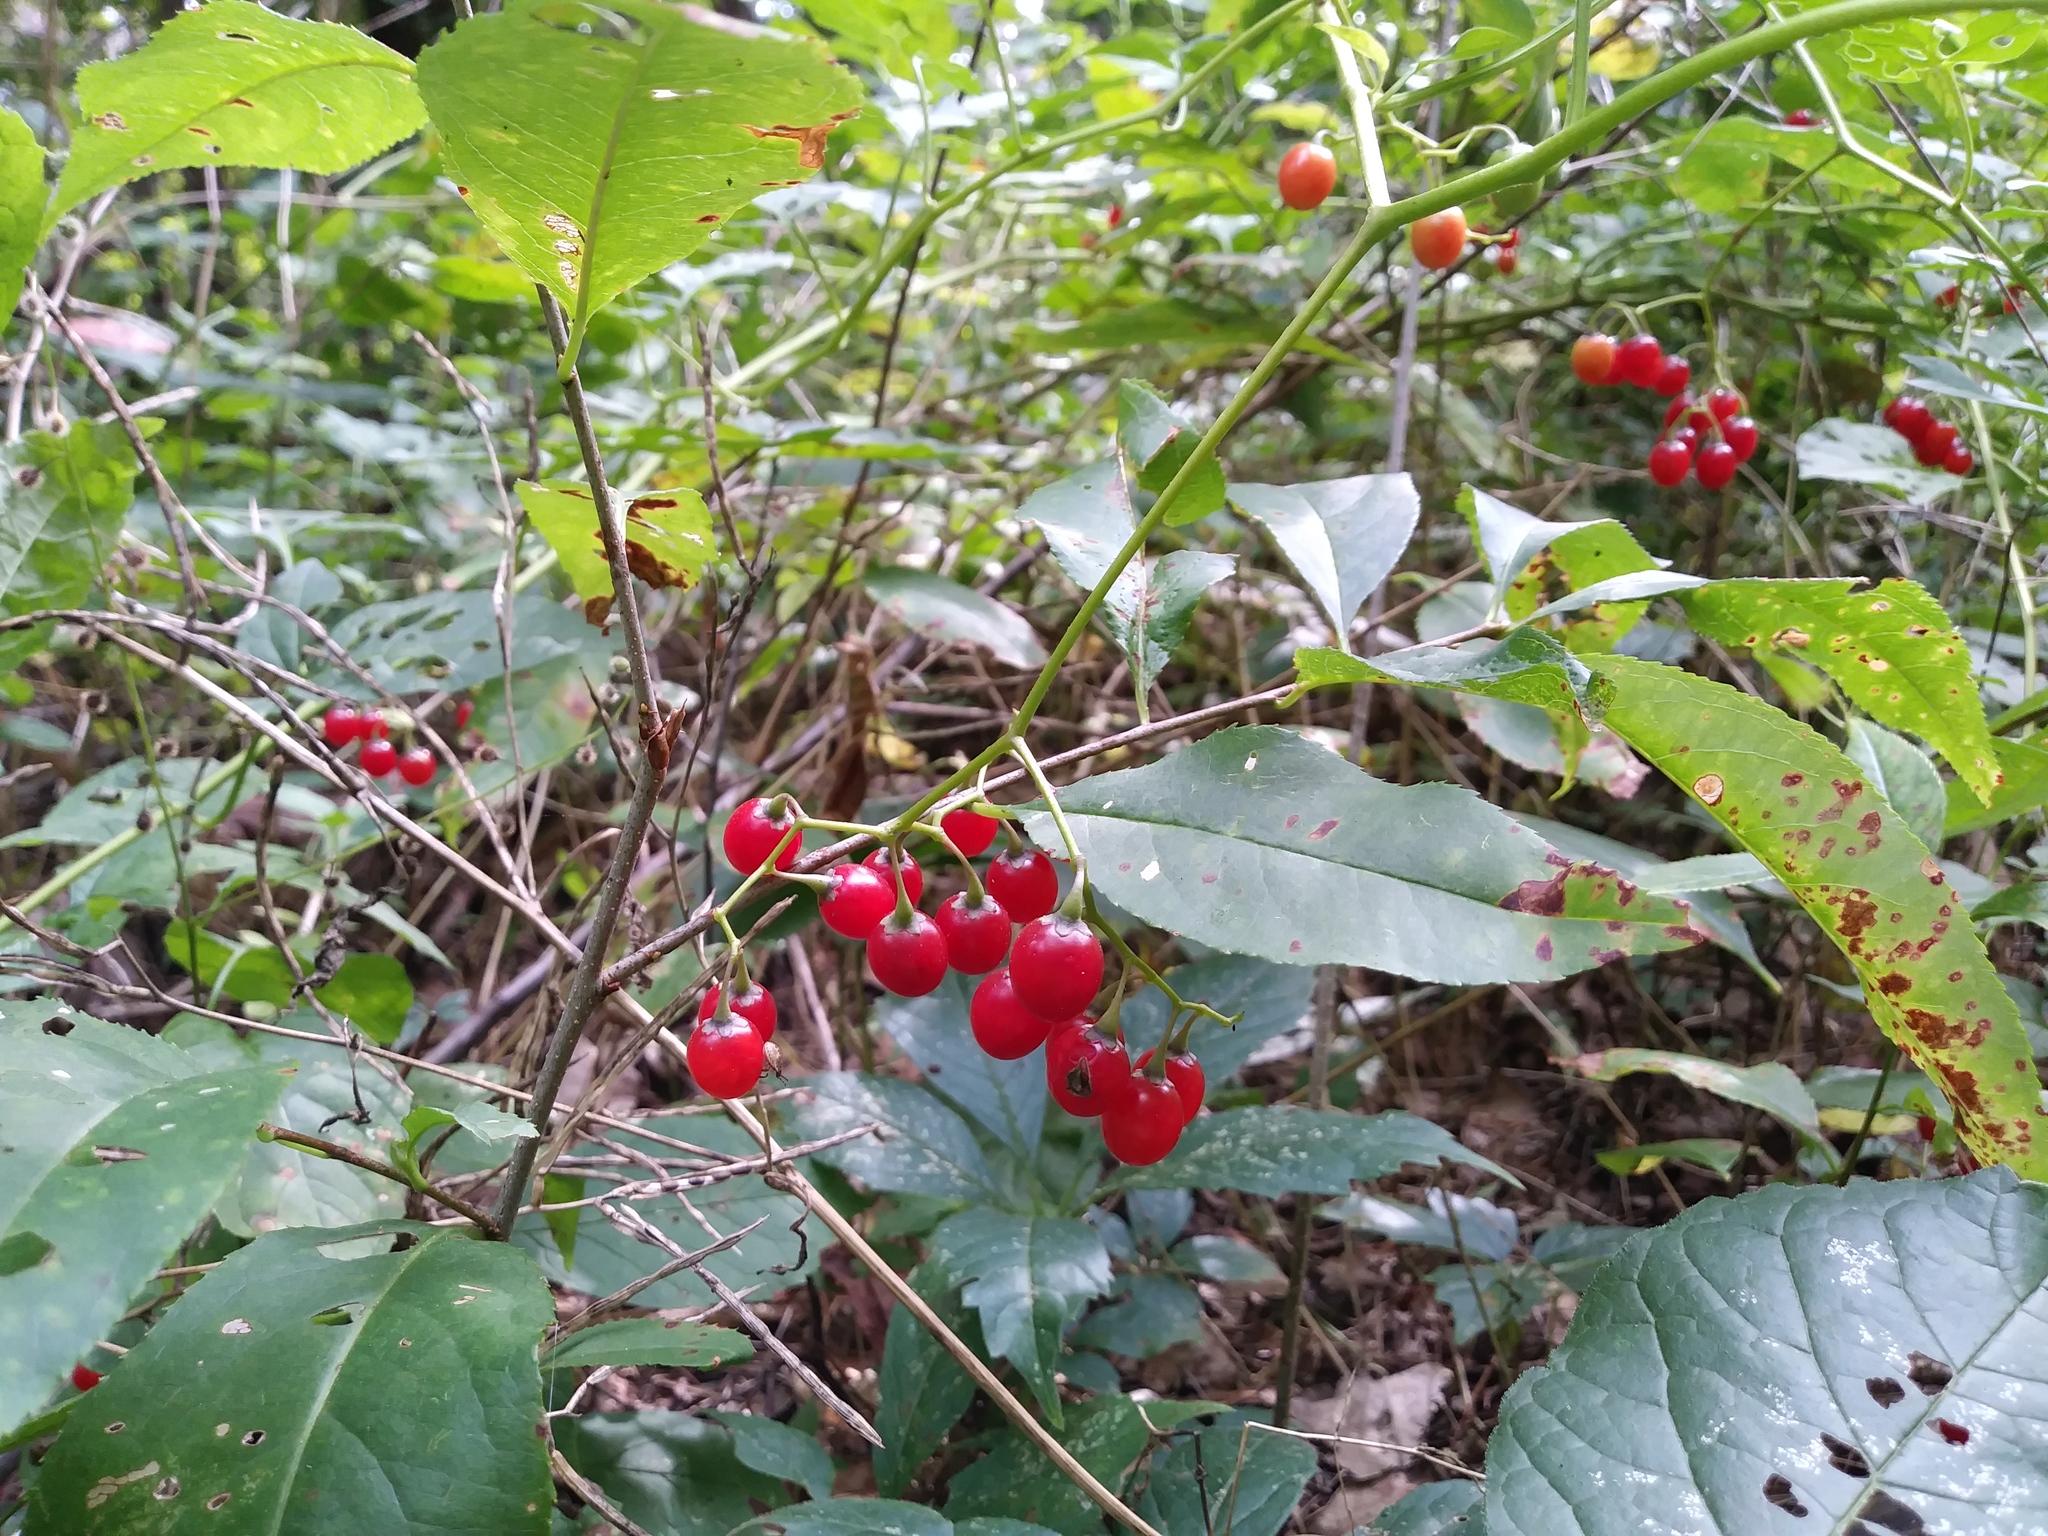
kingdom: Plantae
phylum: Tracheophyta
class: Magnoliopsida
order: Solanales
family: Solanaceae
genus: Solanum
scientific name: Solanum dulcamara
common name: Climbing nightshade
